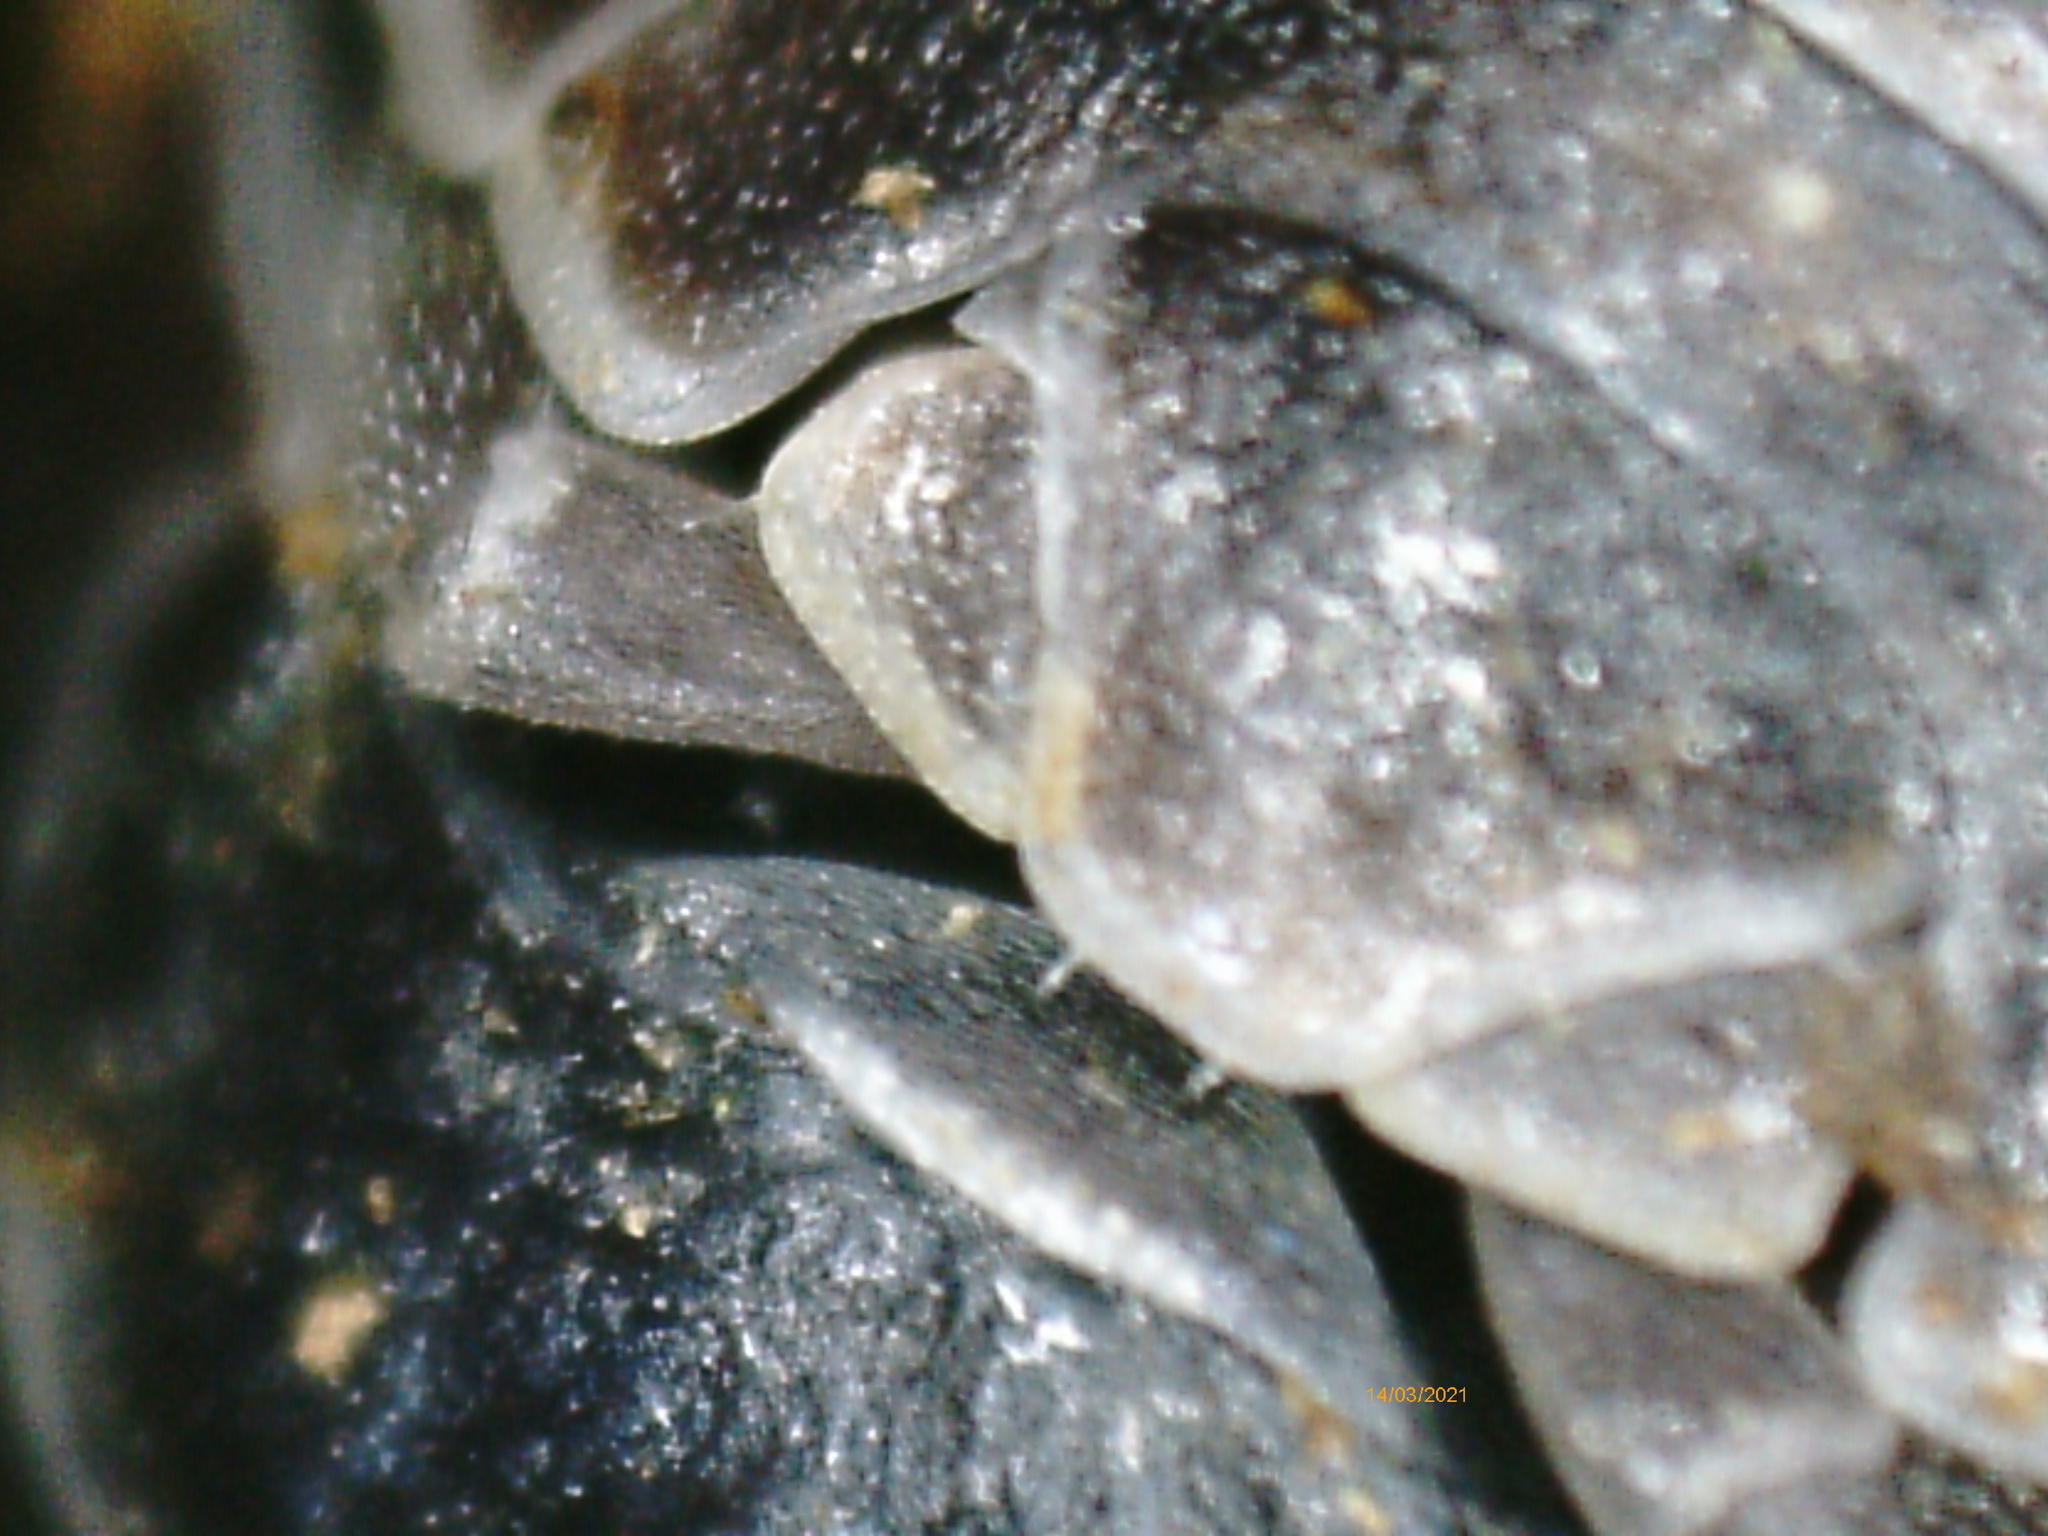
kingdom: Animalia
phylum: Arthropoda
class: Malacostraca
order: Isopoda
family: Armadillidiidae
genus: Armadillidium
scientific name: Armadillidium vulgare
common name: Common pill woodlouse
